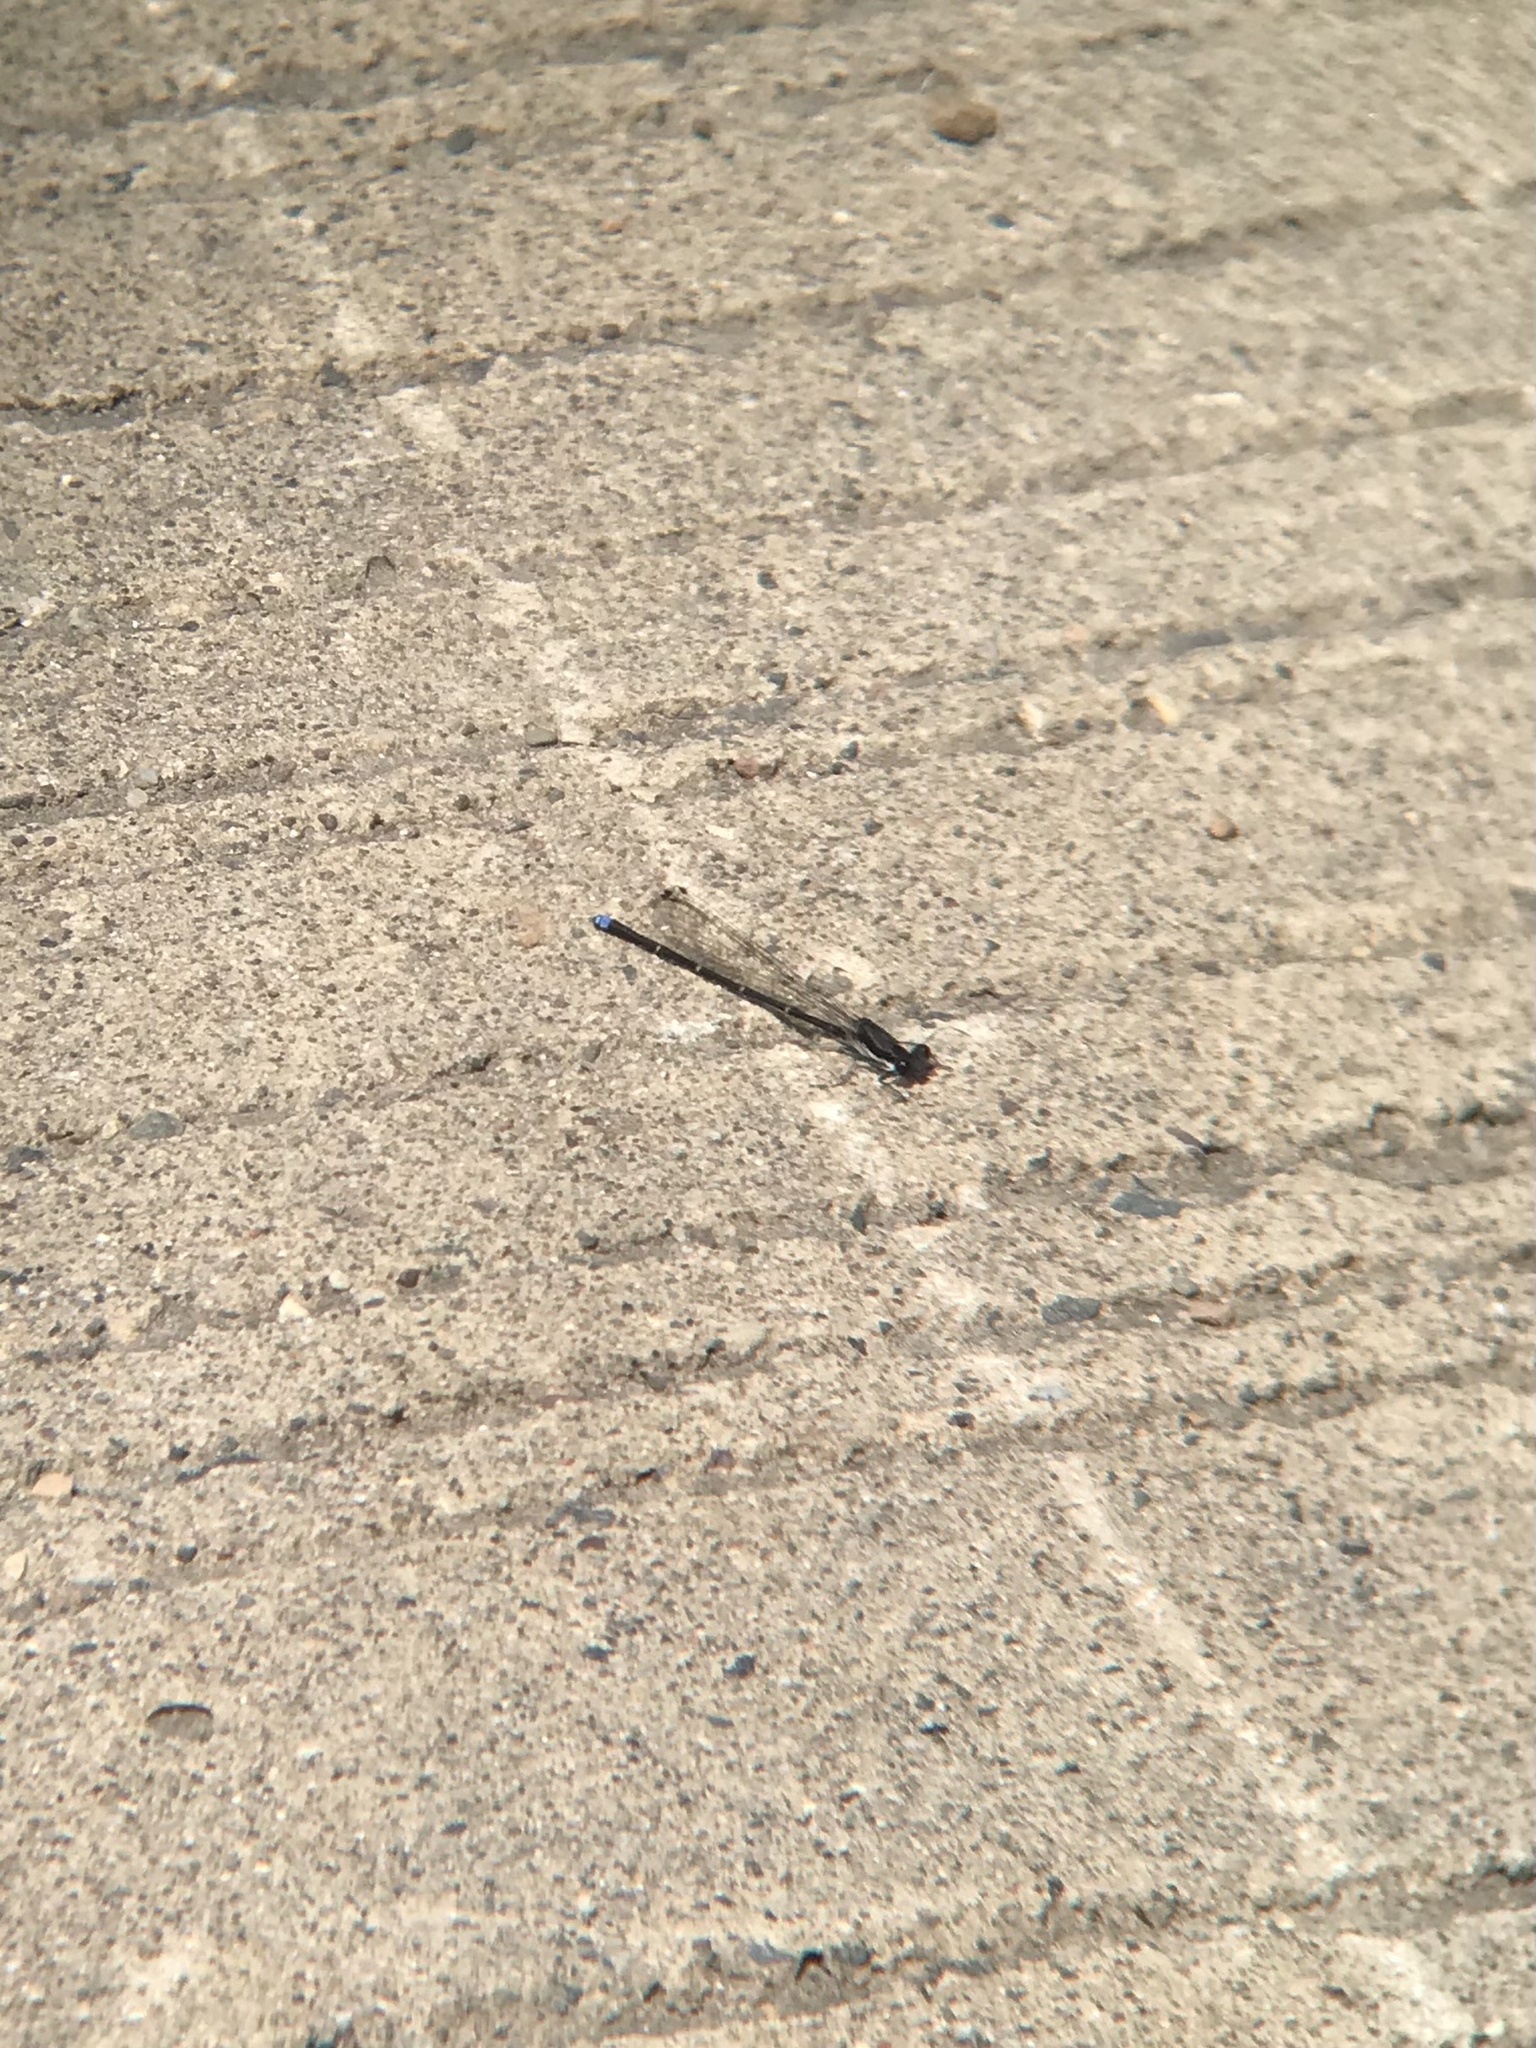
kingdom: Animalia
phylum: Arthropoda
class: Insecta
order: Odonata
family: Coenagrionidae
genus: Argia
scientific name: Argia tibialis
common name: Blue-tipped dancer
